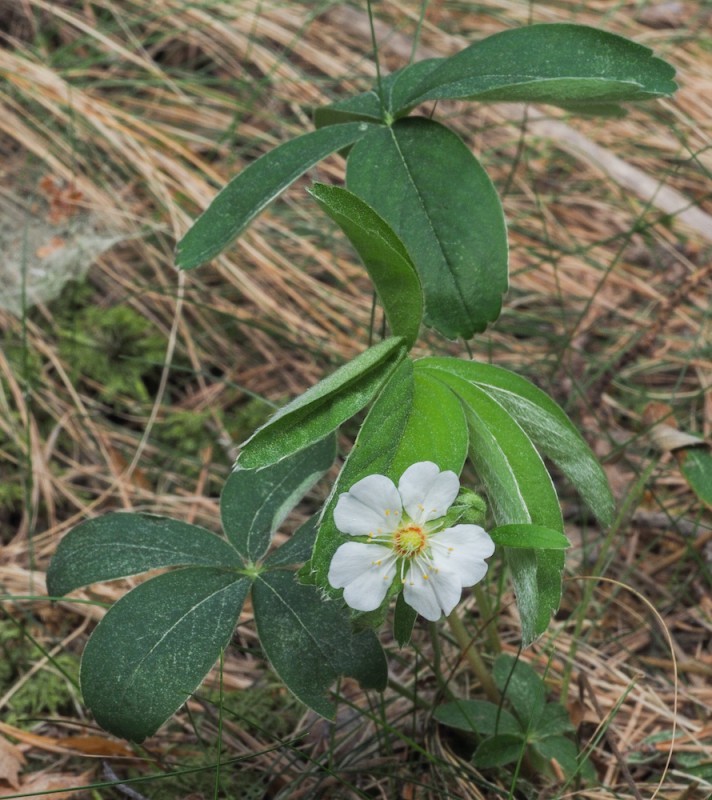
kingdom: Plantae
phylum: Tracheophyta
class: Magnoliopsida
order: Rosales
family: Rosaceae
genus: Potentilla
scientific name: Potentilla alba
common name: White cinquefoil
